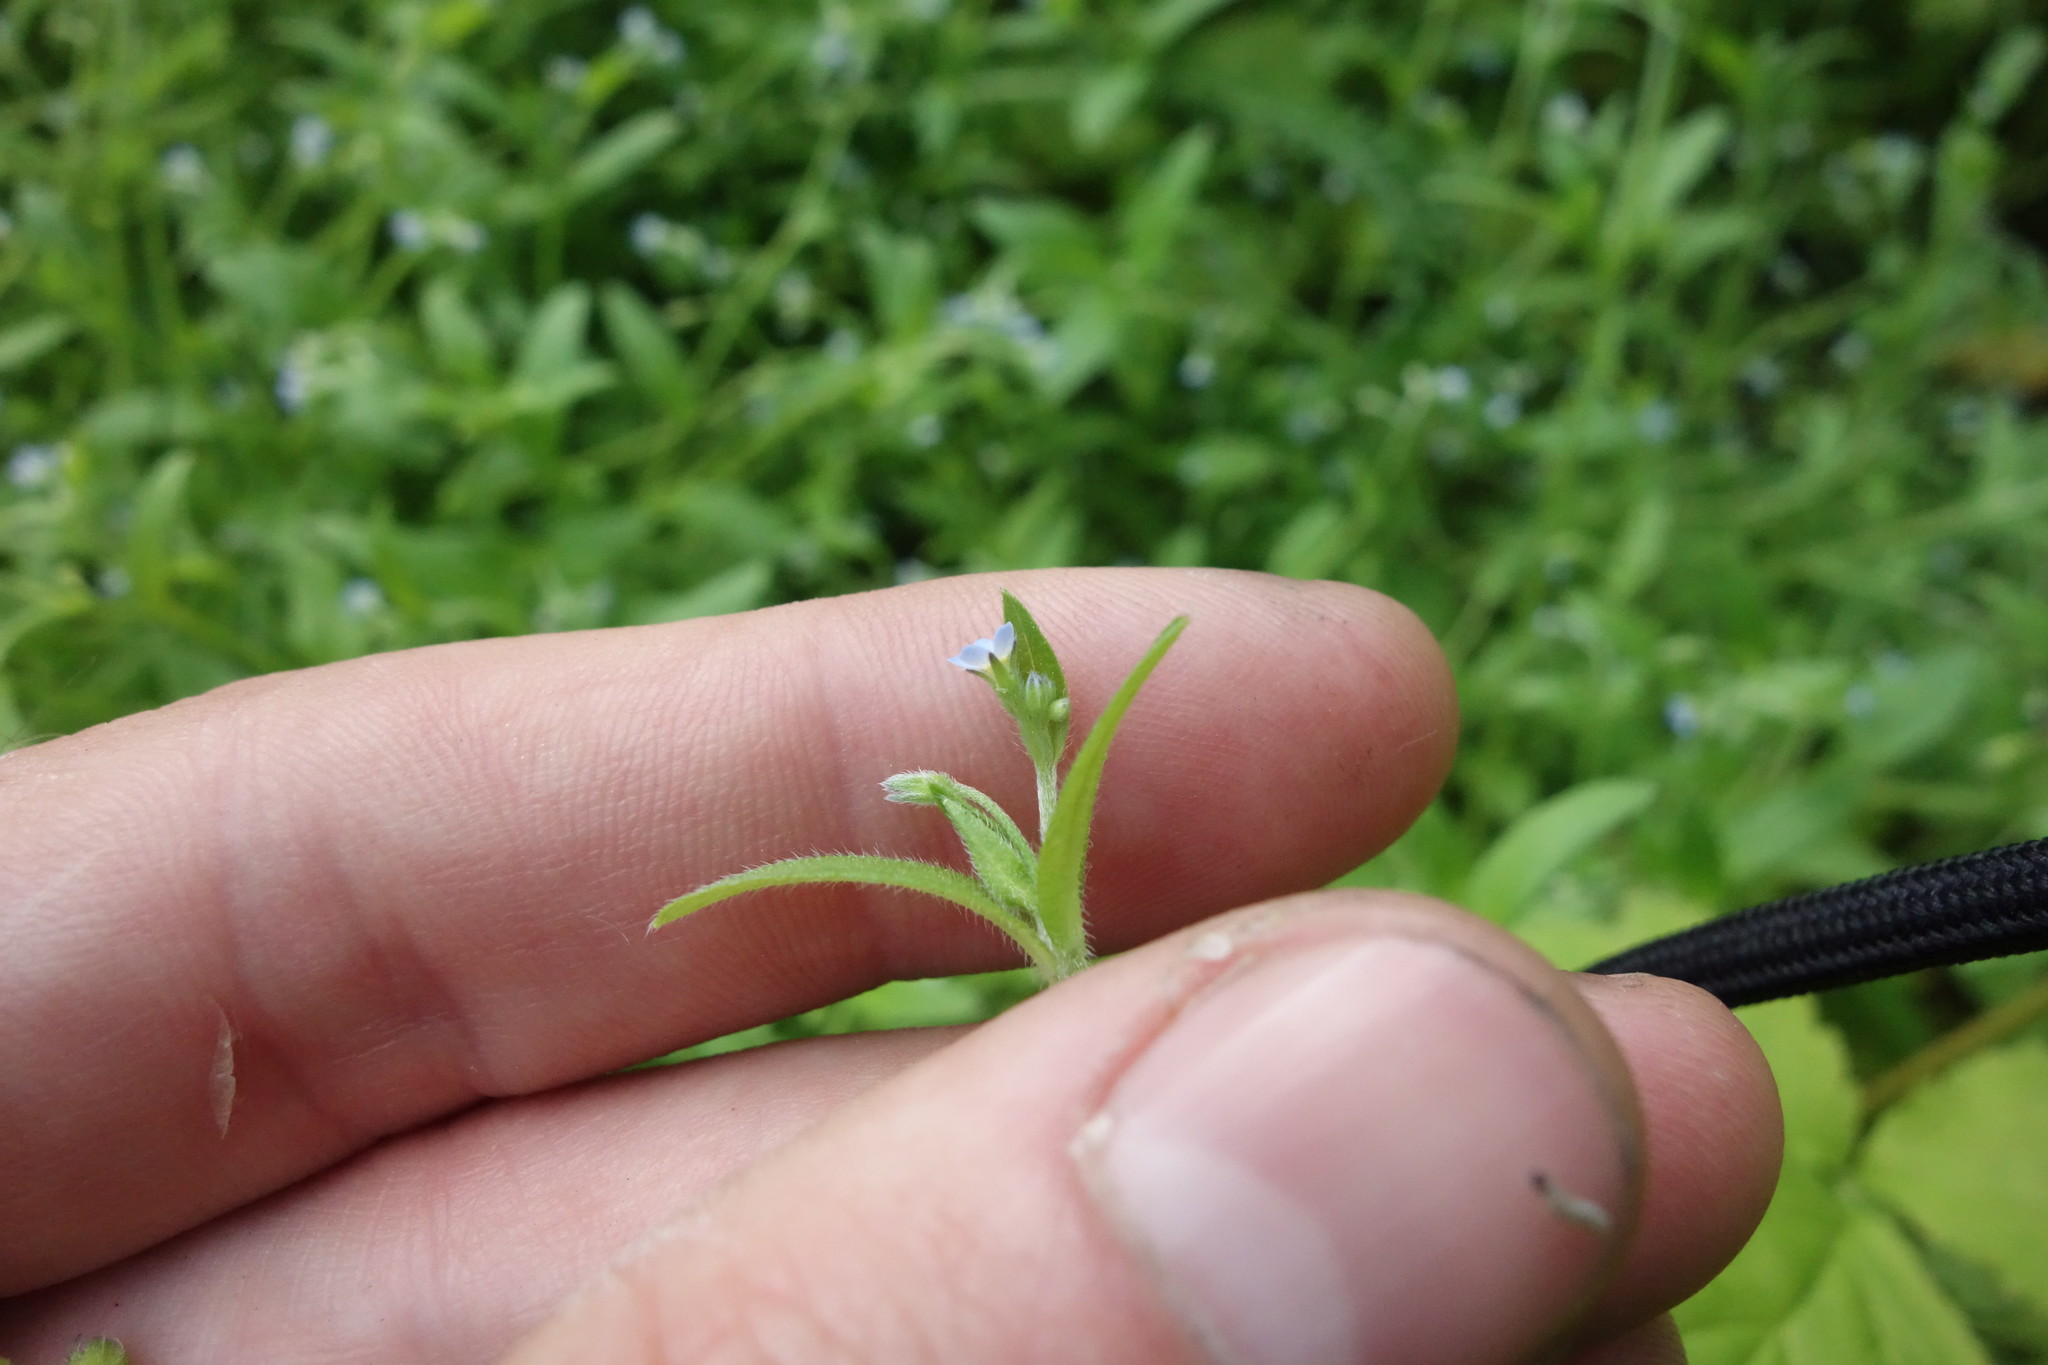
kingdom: Plantae
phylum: Tracheophyta
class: Magnoliopsida
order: Boraginales
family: Boraginaceae
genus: Myosotis
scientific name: Myosotis sparsiflora
